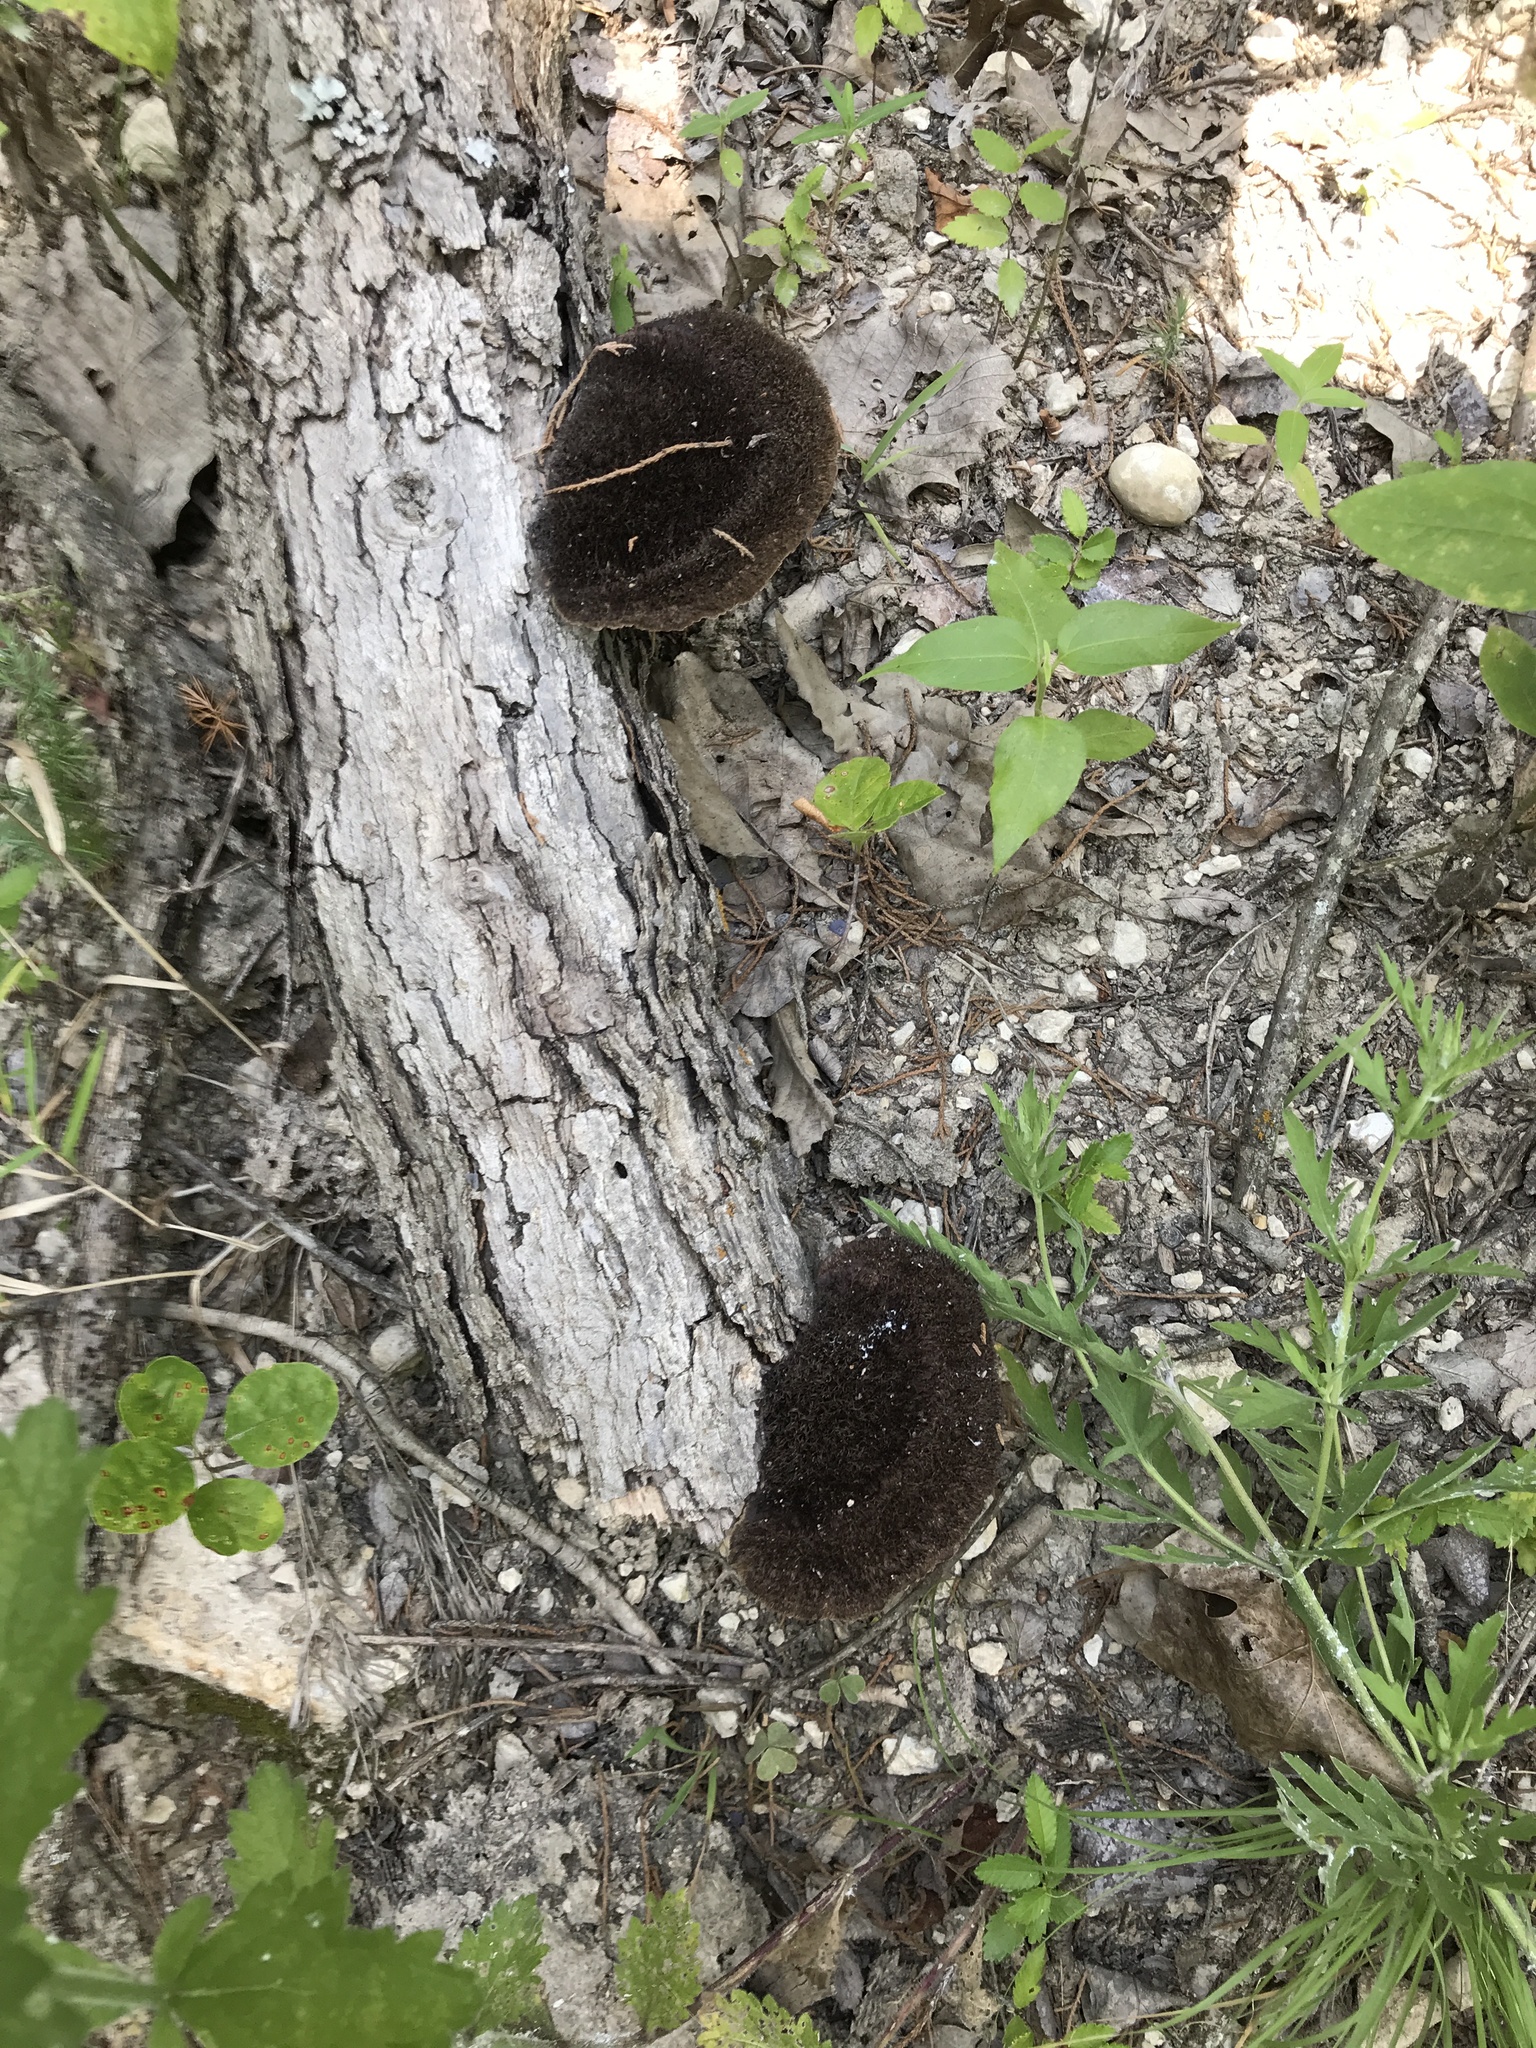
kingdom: Fungi
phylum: Basidiomycota
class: Agaricomycetes
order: Polyporales
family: Cerrenaceae
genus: Cerrena
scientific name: Cerrena hydnoides
